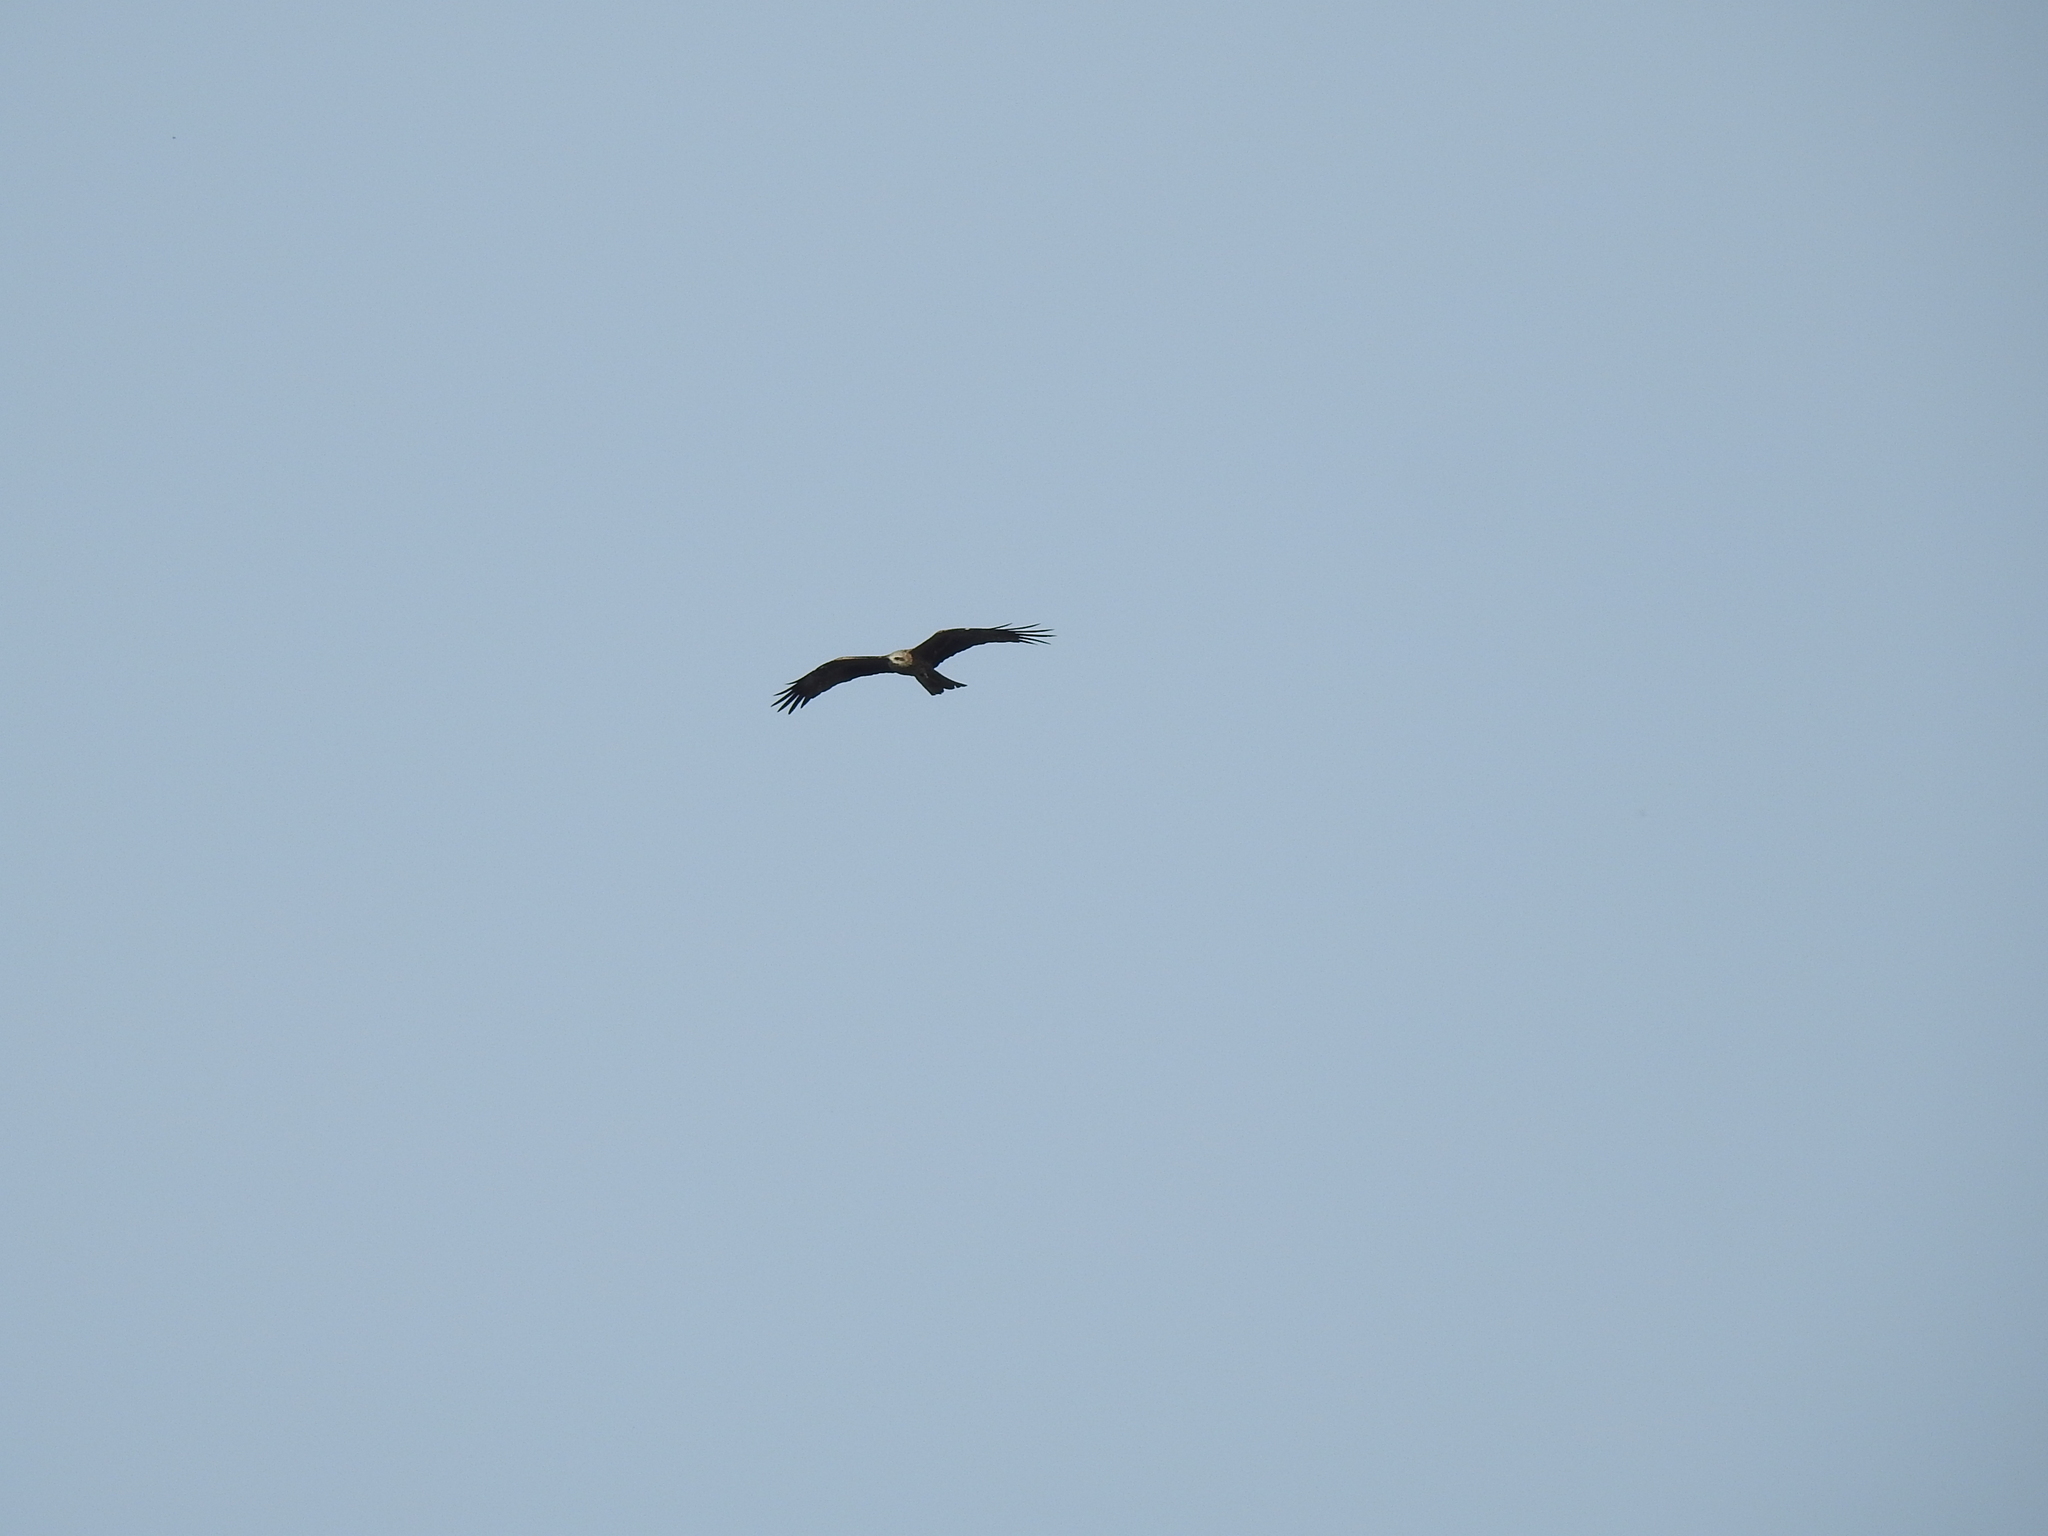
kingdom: Animalia
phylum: Chordata
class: Aves
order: Accipitriformes
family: Accipitridae
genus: Milvus
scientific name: Milvus migrans
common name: Black kite
